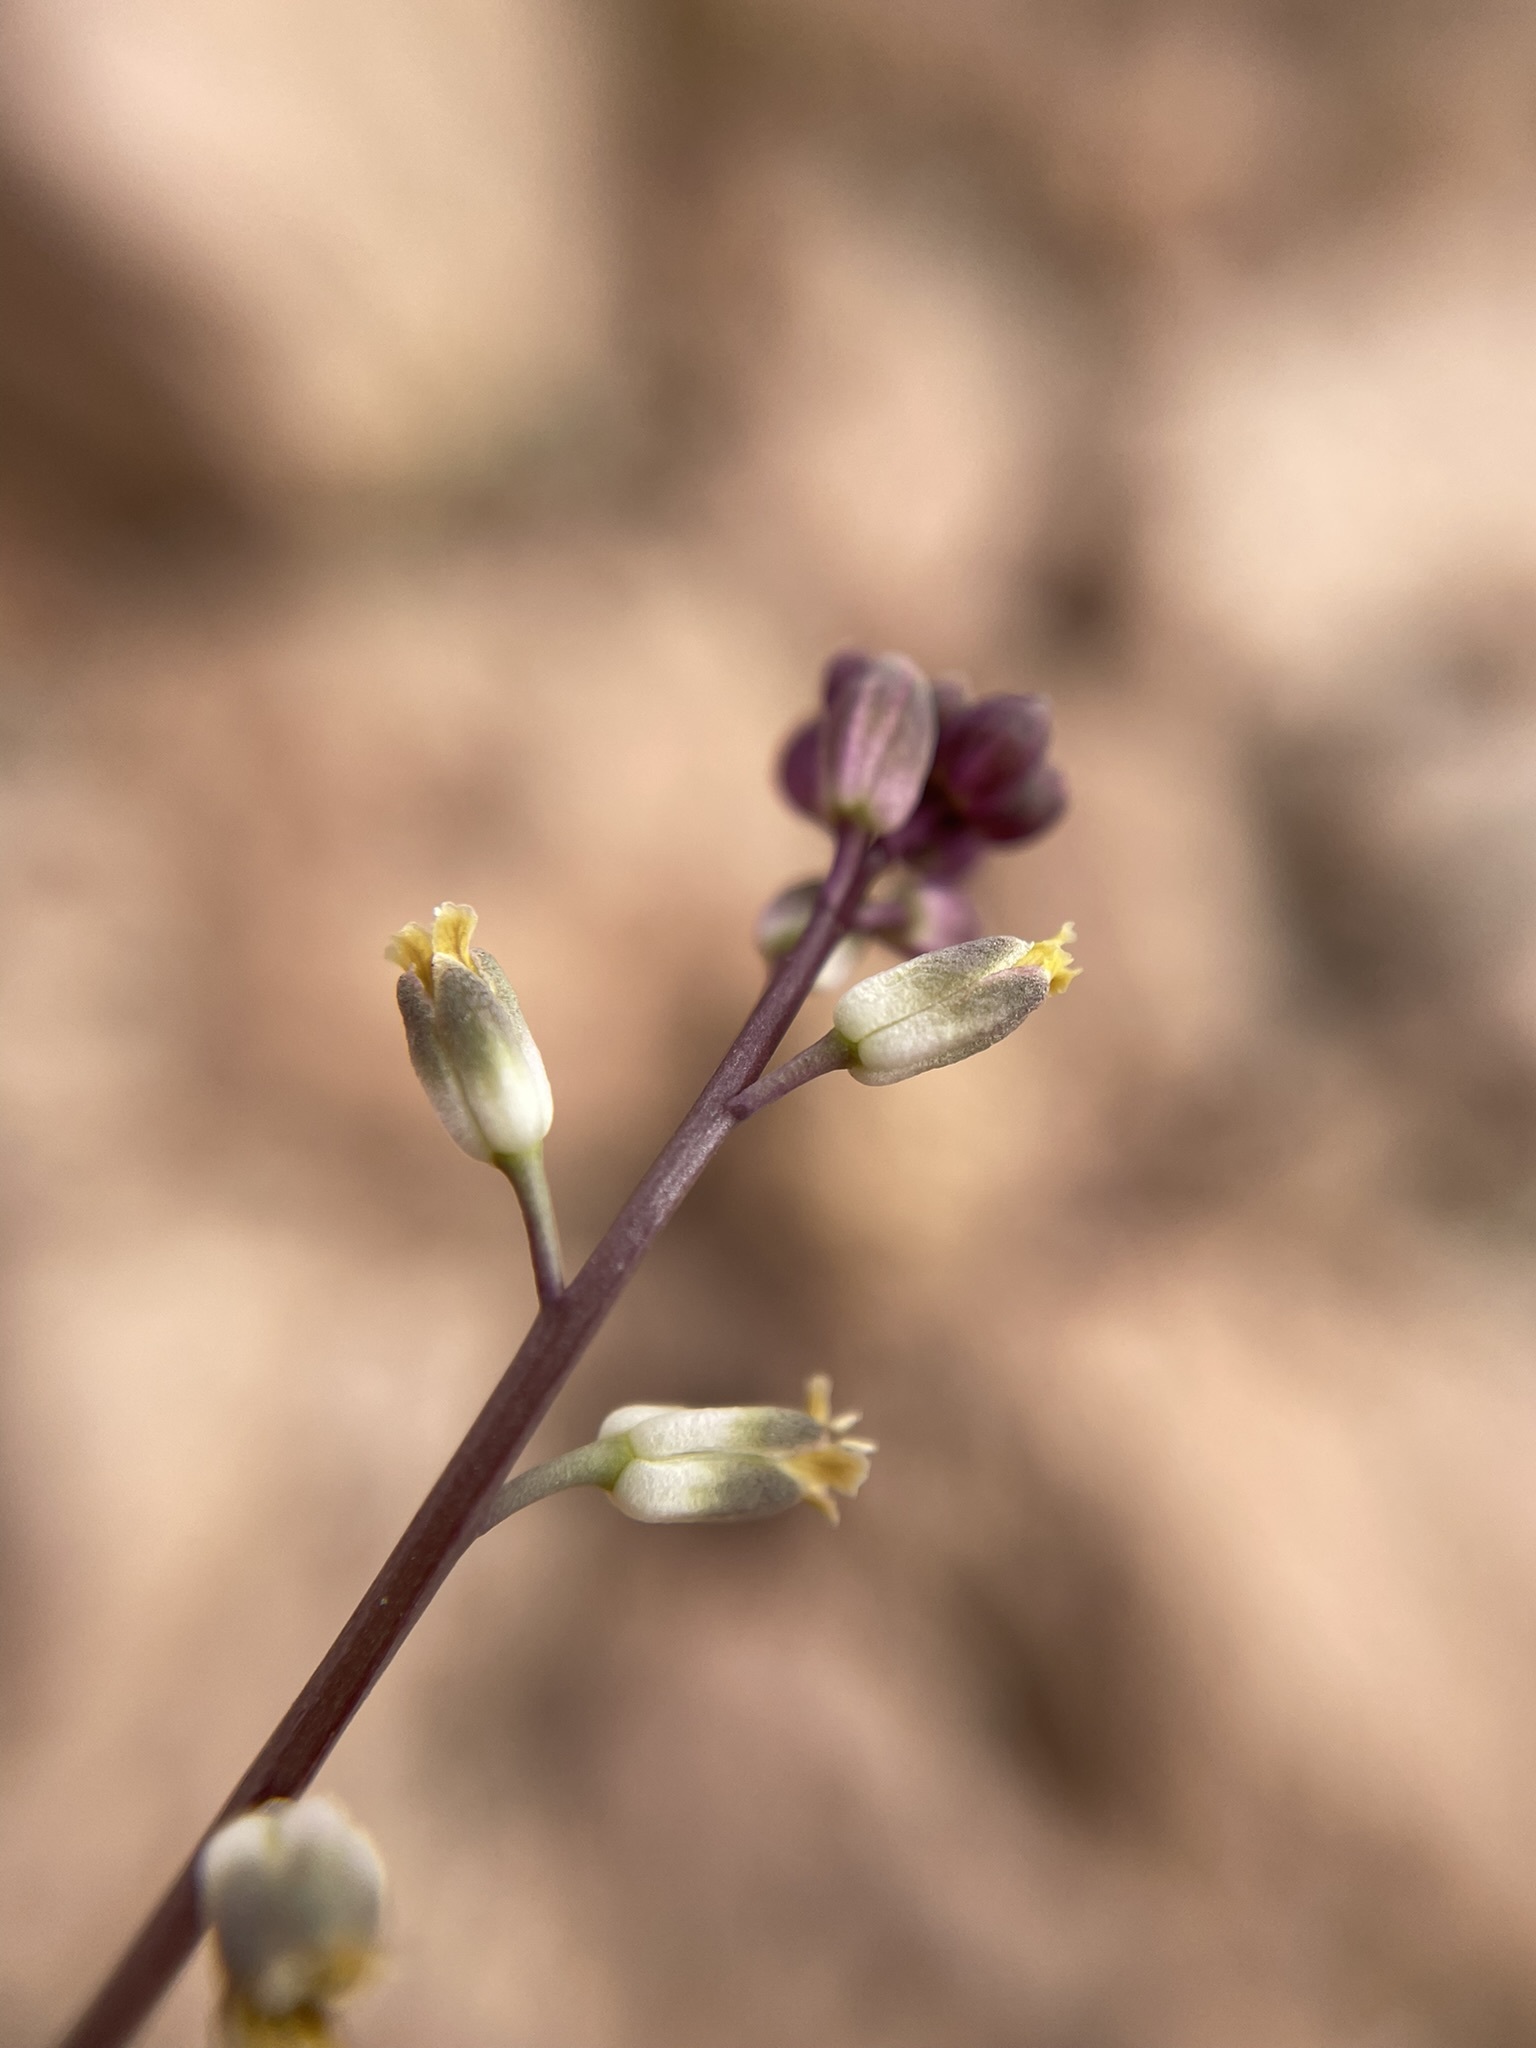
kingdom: Plantae
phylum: Tracheophyta
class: Magnoliopsida
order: Brassicales
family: Brassicaceae
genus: Streptanthus
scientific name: Streptanthus longirostris
